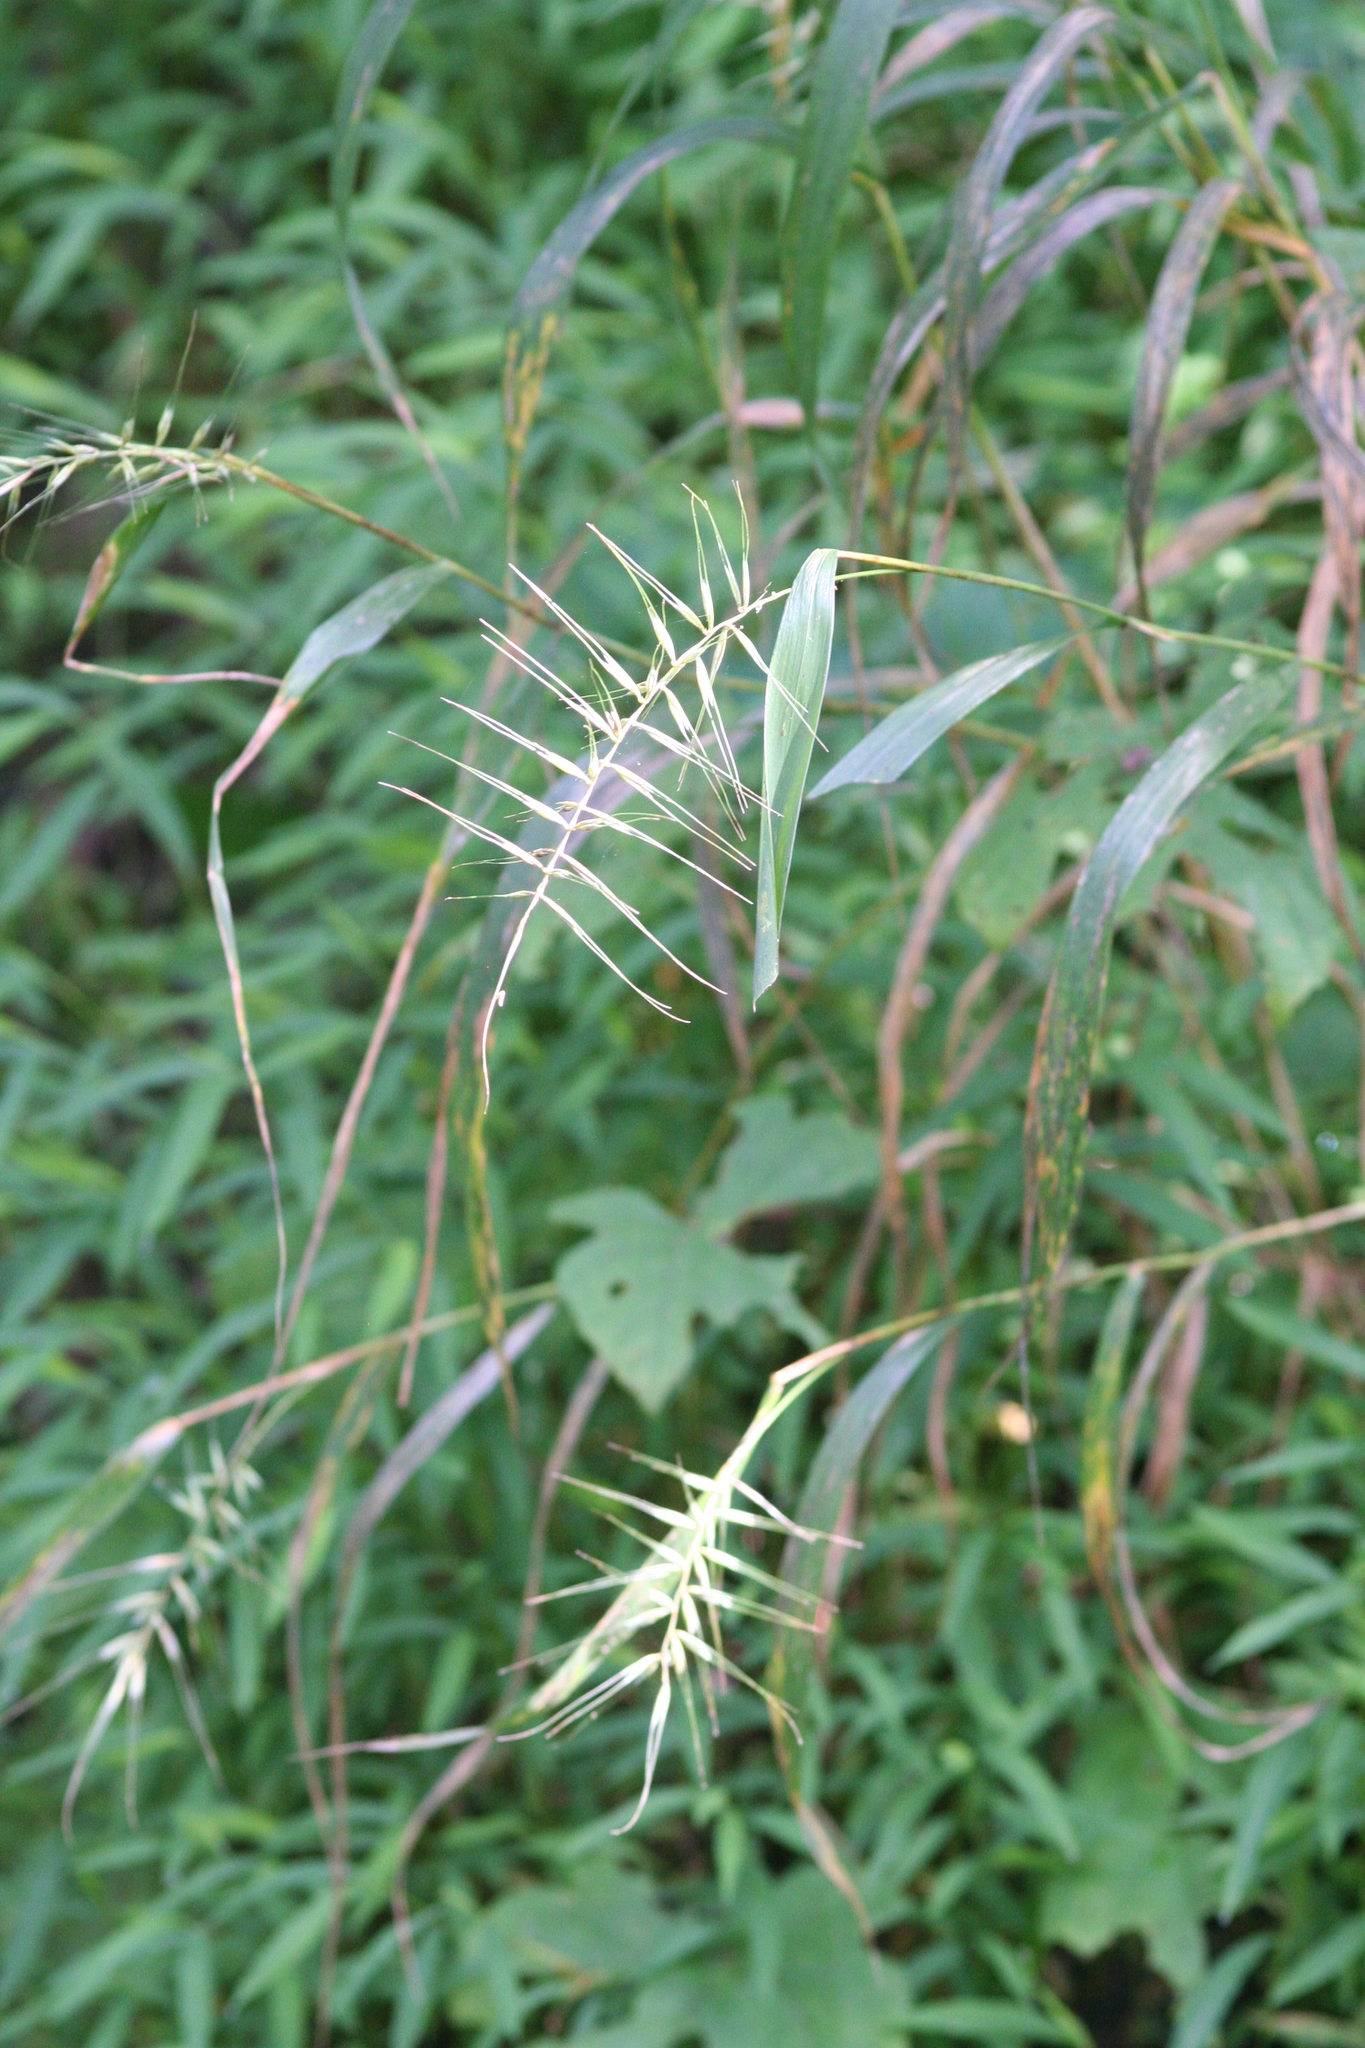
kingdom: Plantae
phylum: Tracheophyta
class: Liliopsida
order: Poales
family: Poaceae
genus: Elymus
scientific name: Elymus hystrix
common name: Bottlebrush grass
